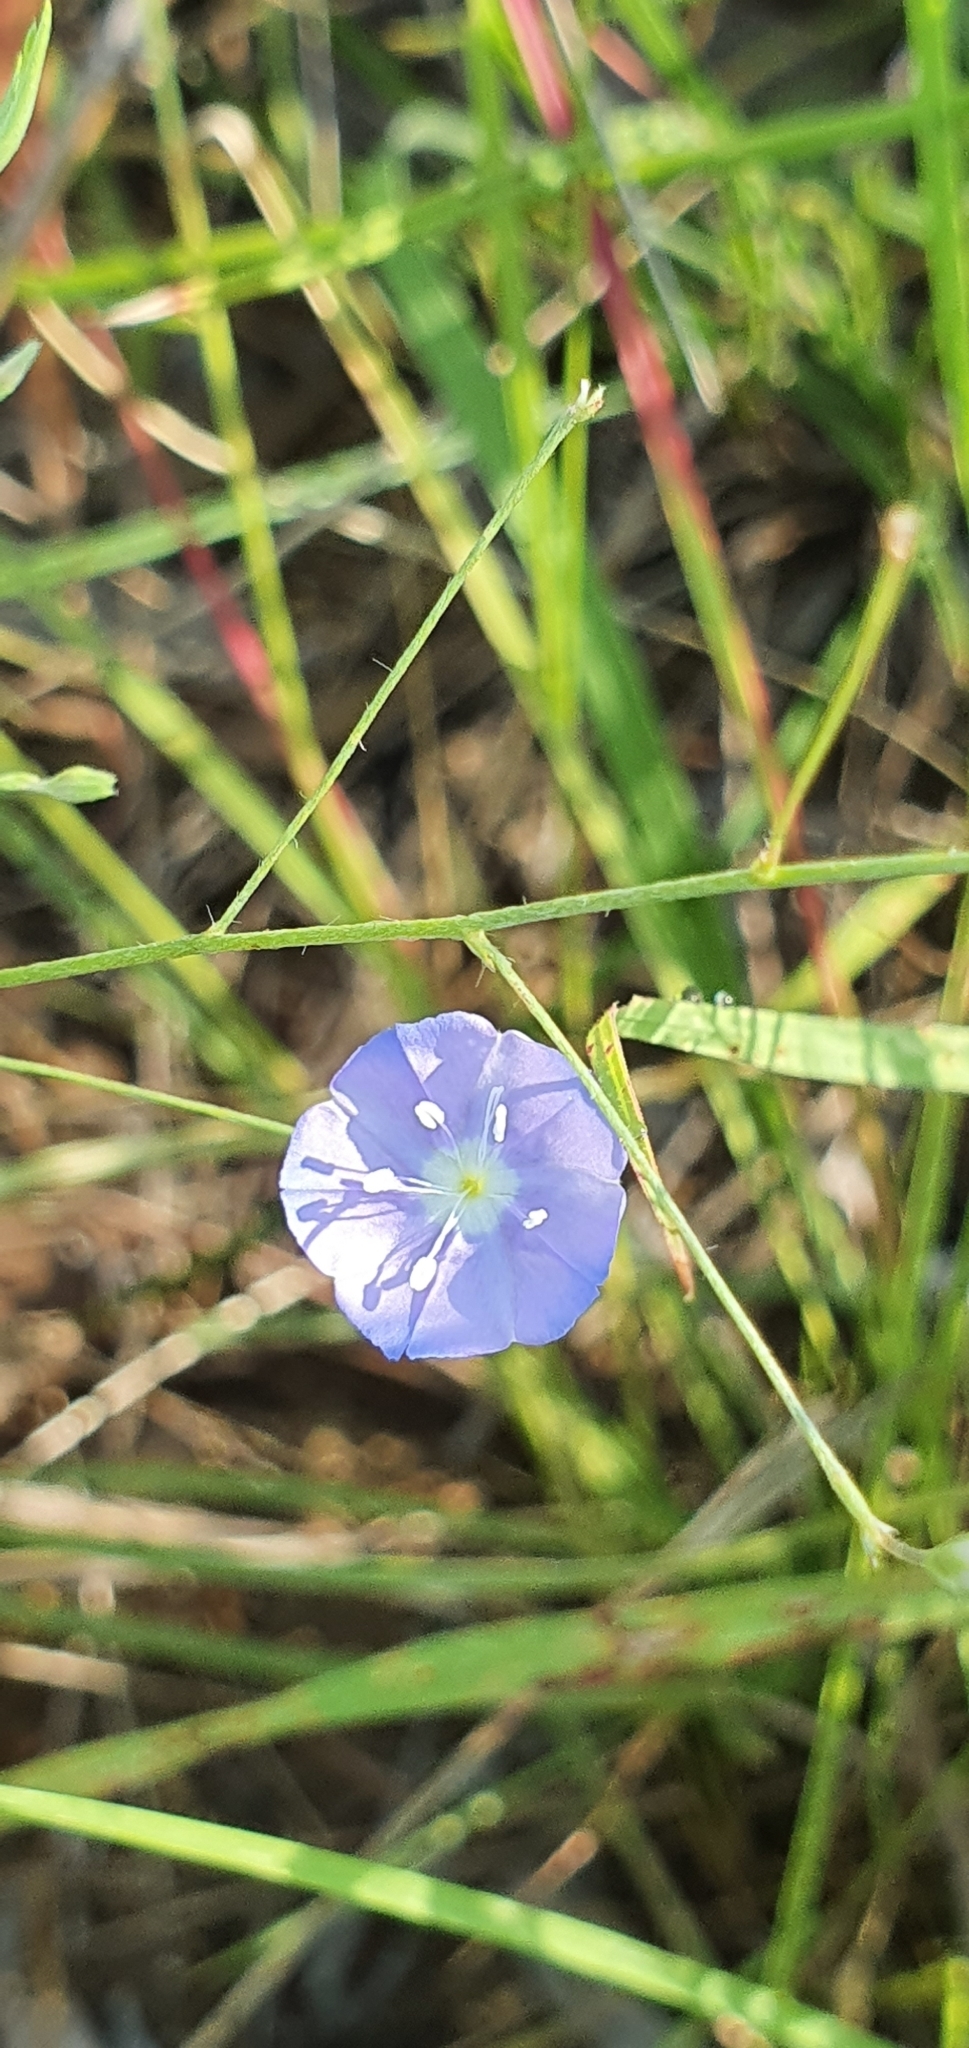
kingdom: Plantae
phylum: Tracheophyta
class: Magnoliopsida
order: Solanales
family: Convolvulaceae
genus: Evolvulus
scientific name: Evolvulus alsinoides
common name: Slender dwarf morning-glory
